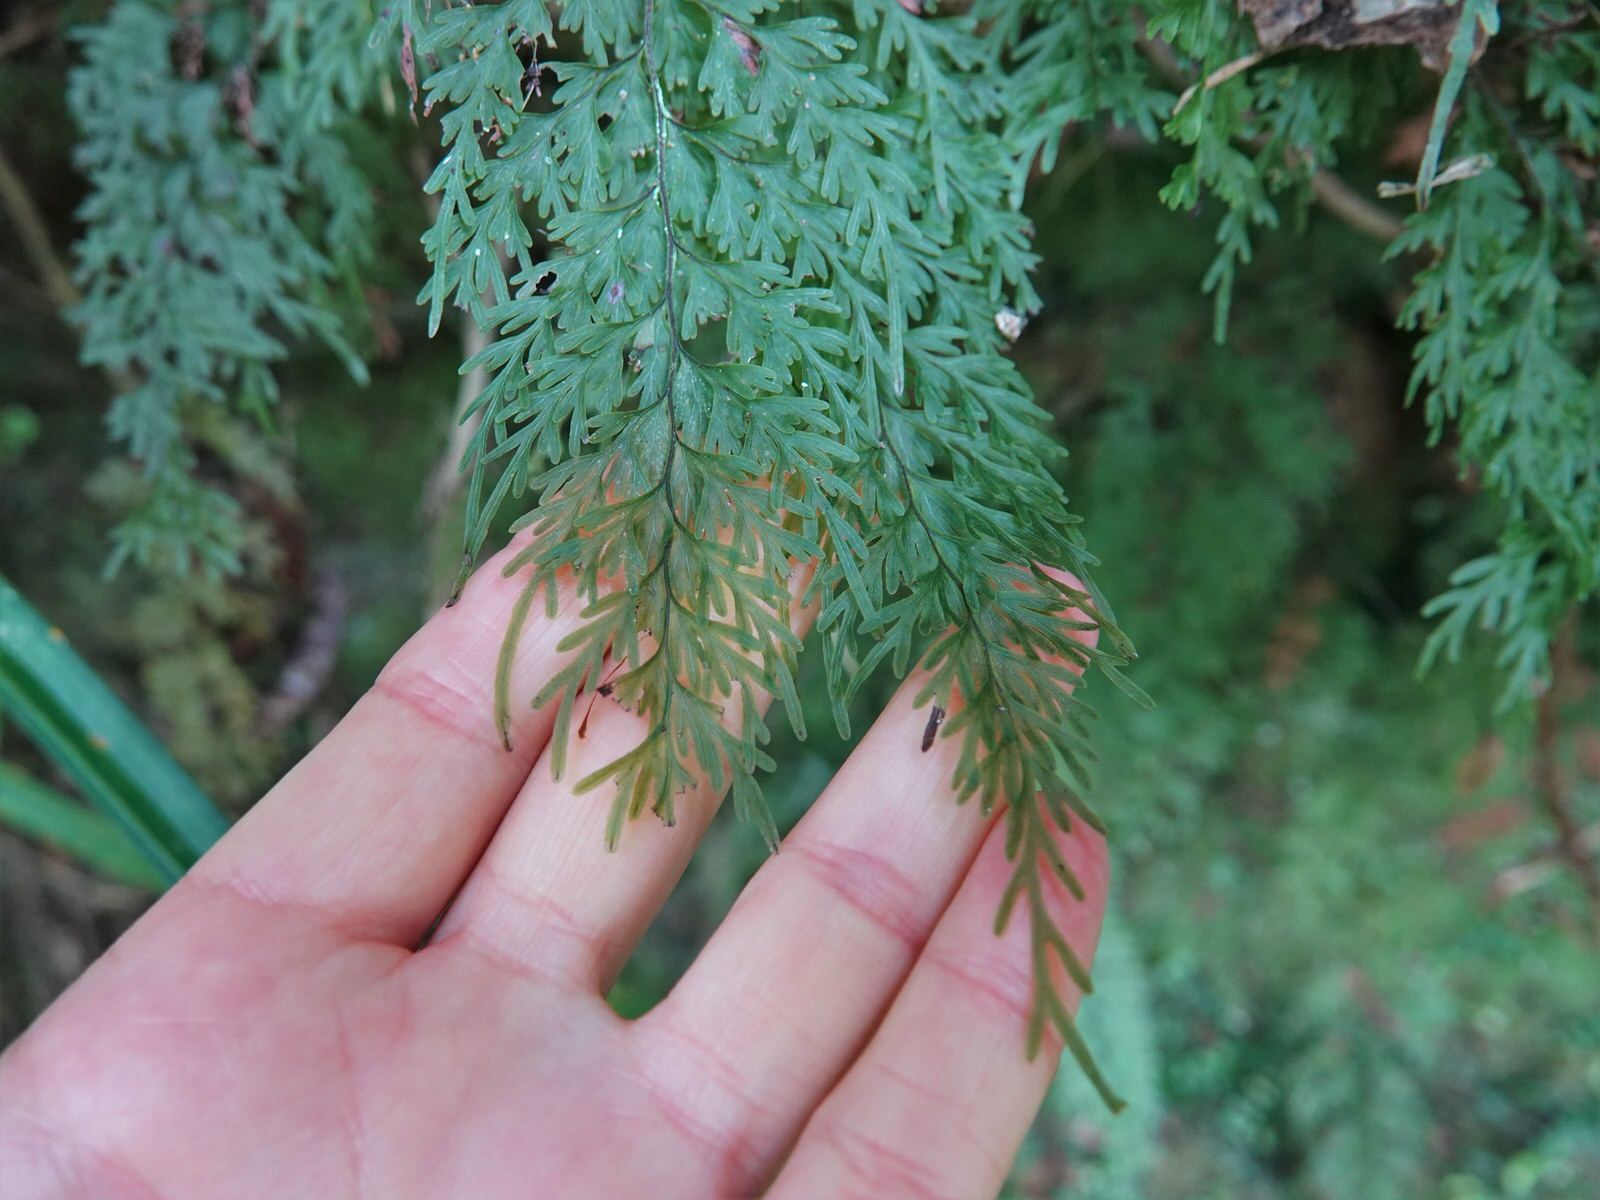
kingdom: Plantae
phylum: Tracheophyta
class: Polypodiopsida
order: Hymenophyllales
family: Hymenophyllaceae
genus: Hymenophyllum
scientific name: Hymenophyllum demissum
